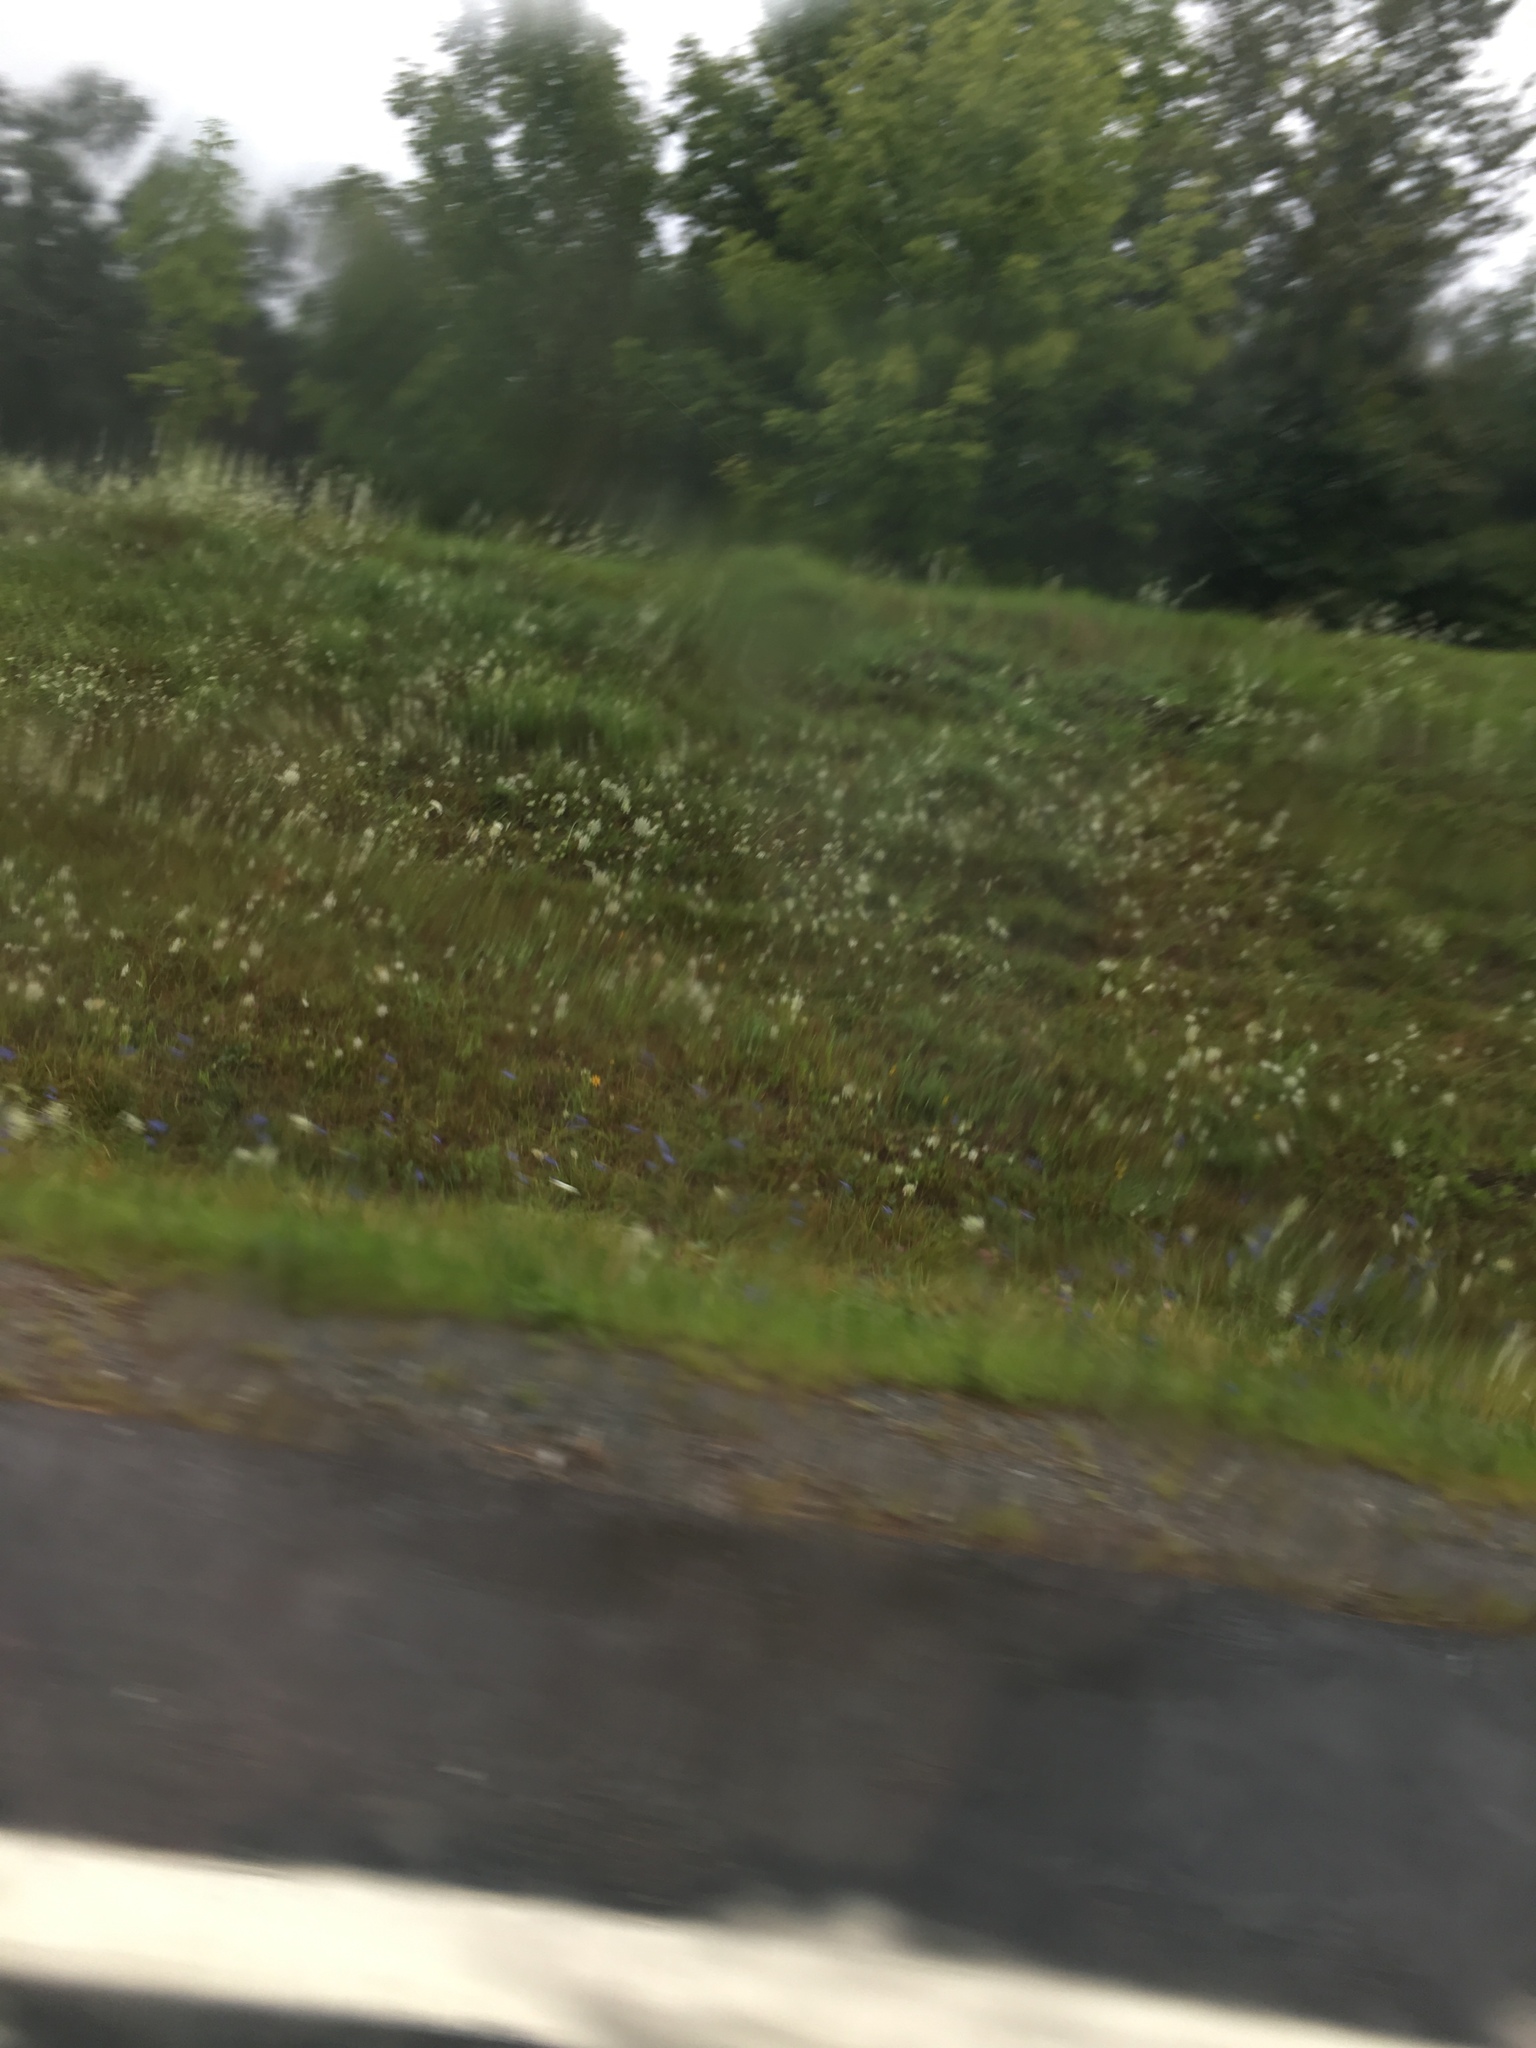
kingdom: Plantae
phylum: Tracheophyta
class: Magnoliopsida
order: Apiales
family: Apiaceae
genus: Daucus
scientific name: Daucus carota
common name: Wild carrot
